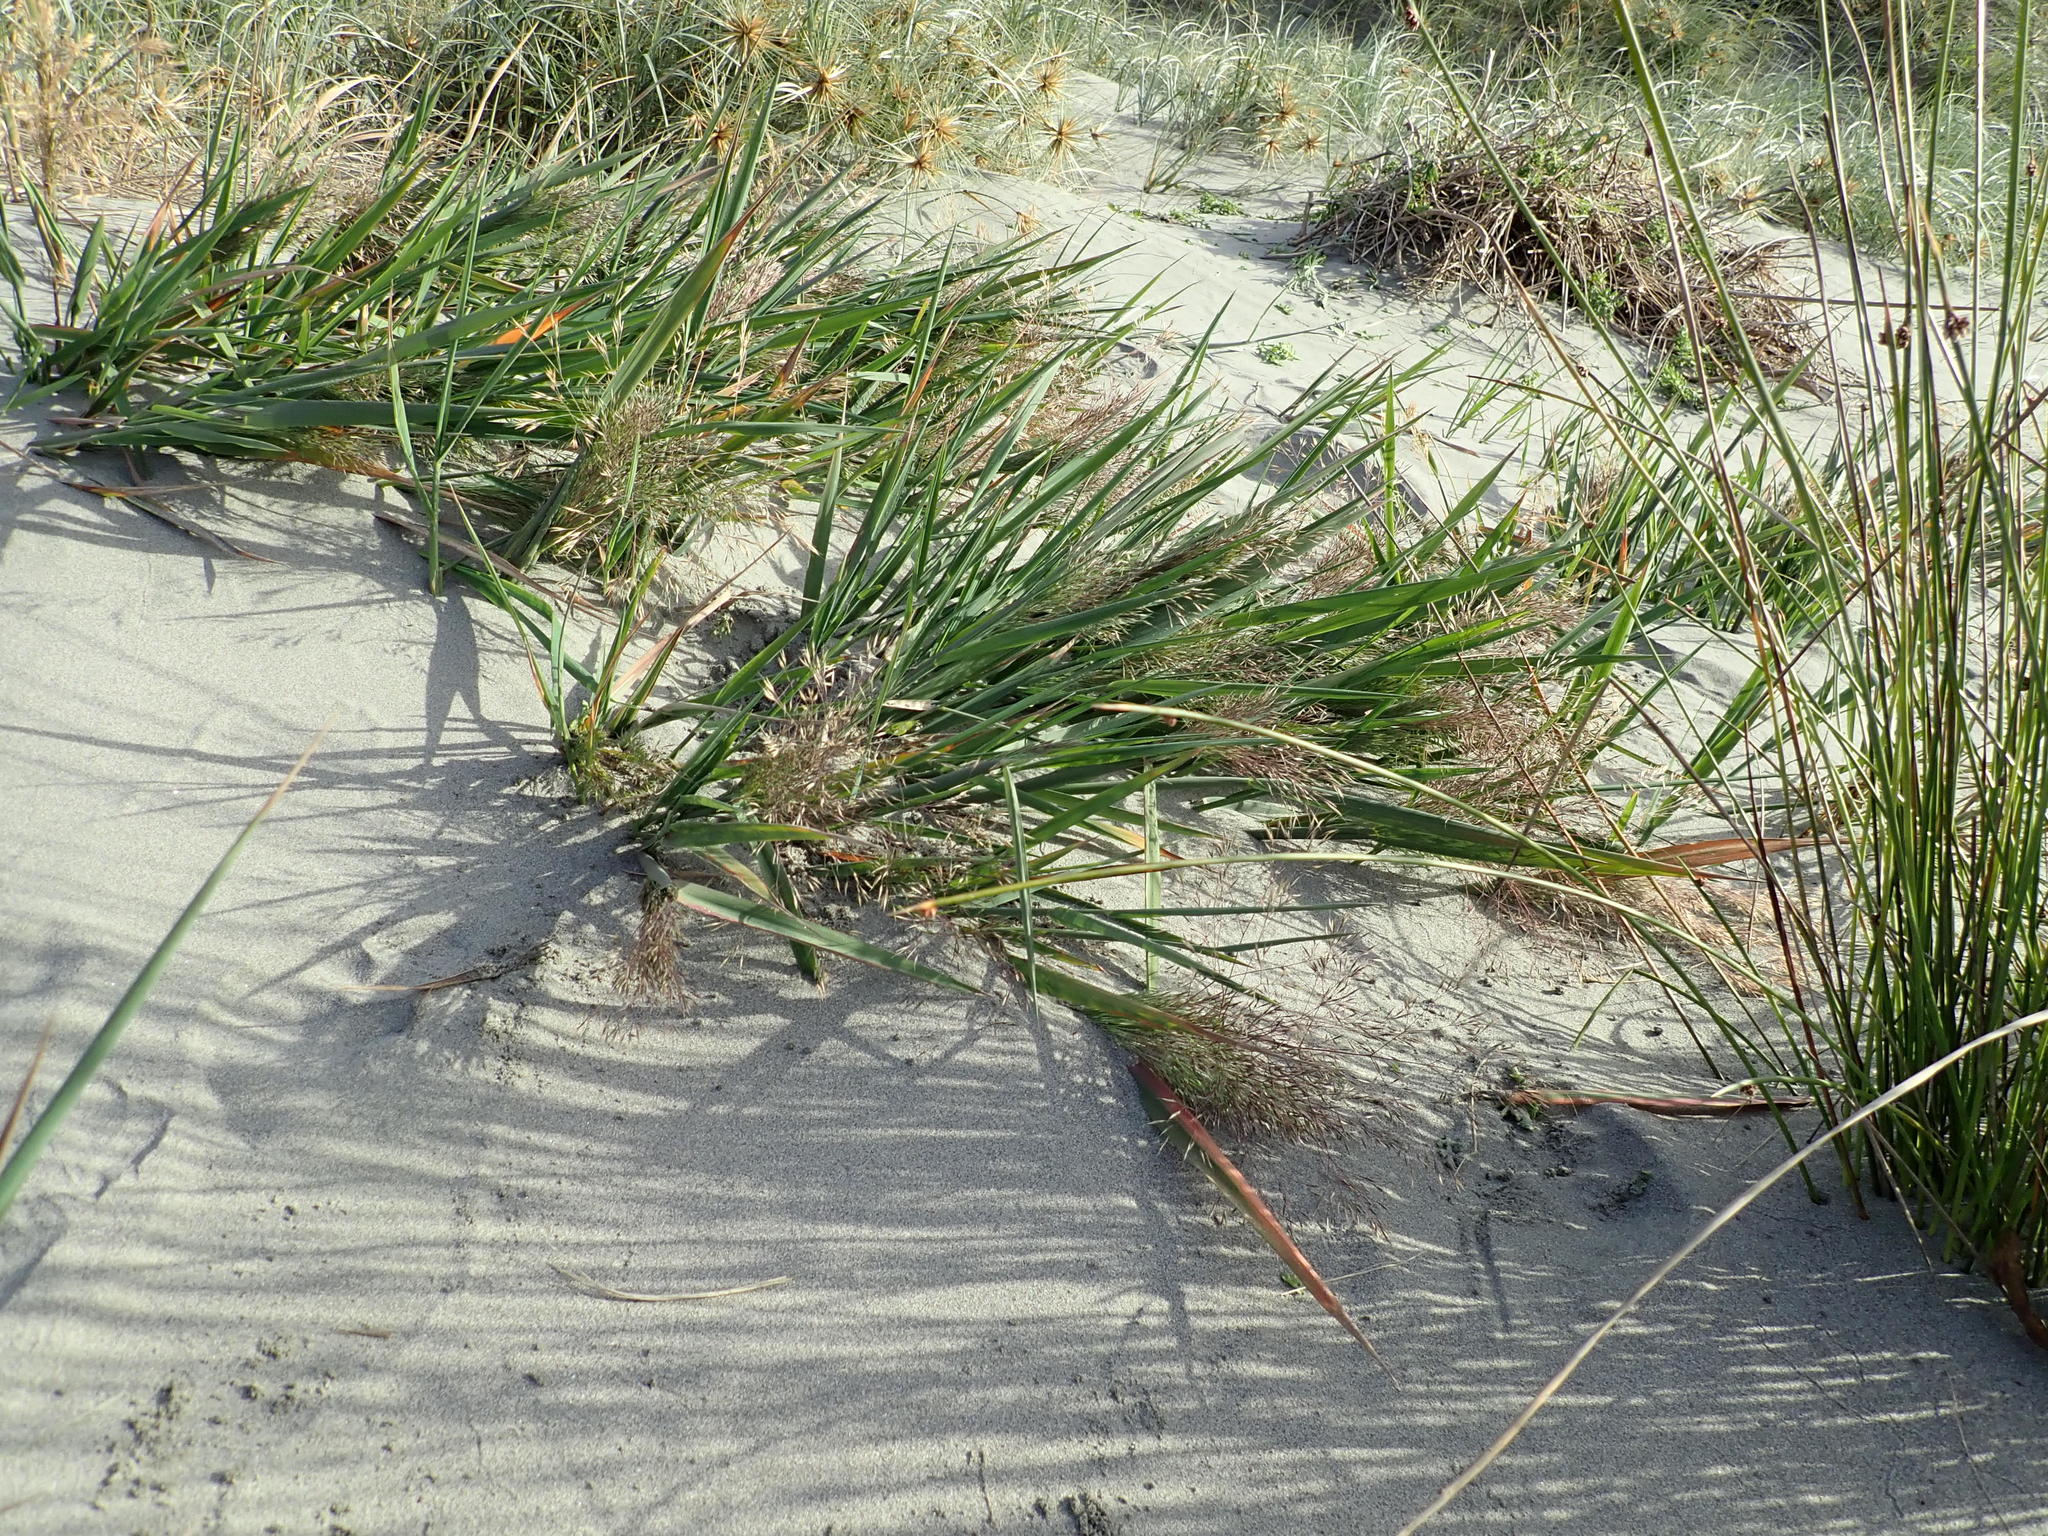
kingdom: Plantae
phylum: Tracheophyta
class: Liliopsida
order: Poales
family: Poaceae
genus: Lachnagrostis
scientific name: Lachnagrostis billardierei
